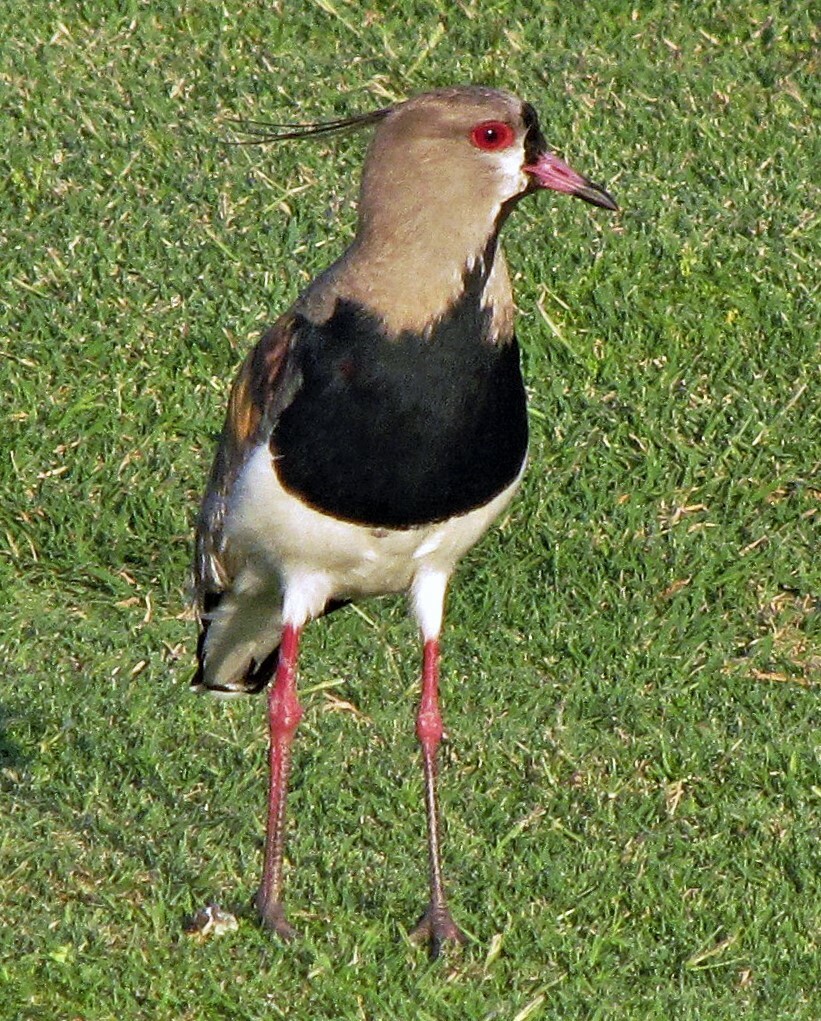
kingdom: Animalia
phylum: Chordata
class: Aves
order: Charadriiformes
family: Charadriidae
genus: Vanellus
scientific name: Vanellus chilensis
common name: Southern lapwing
